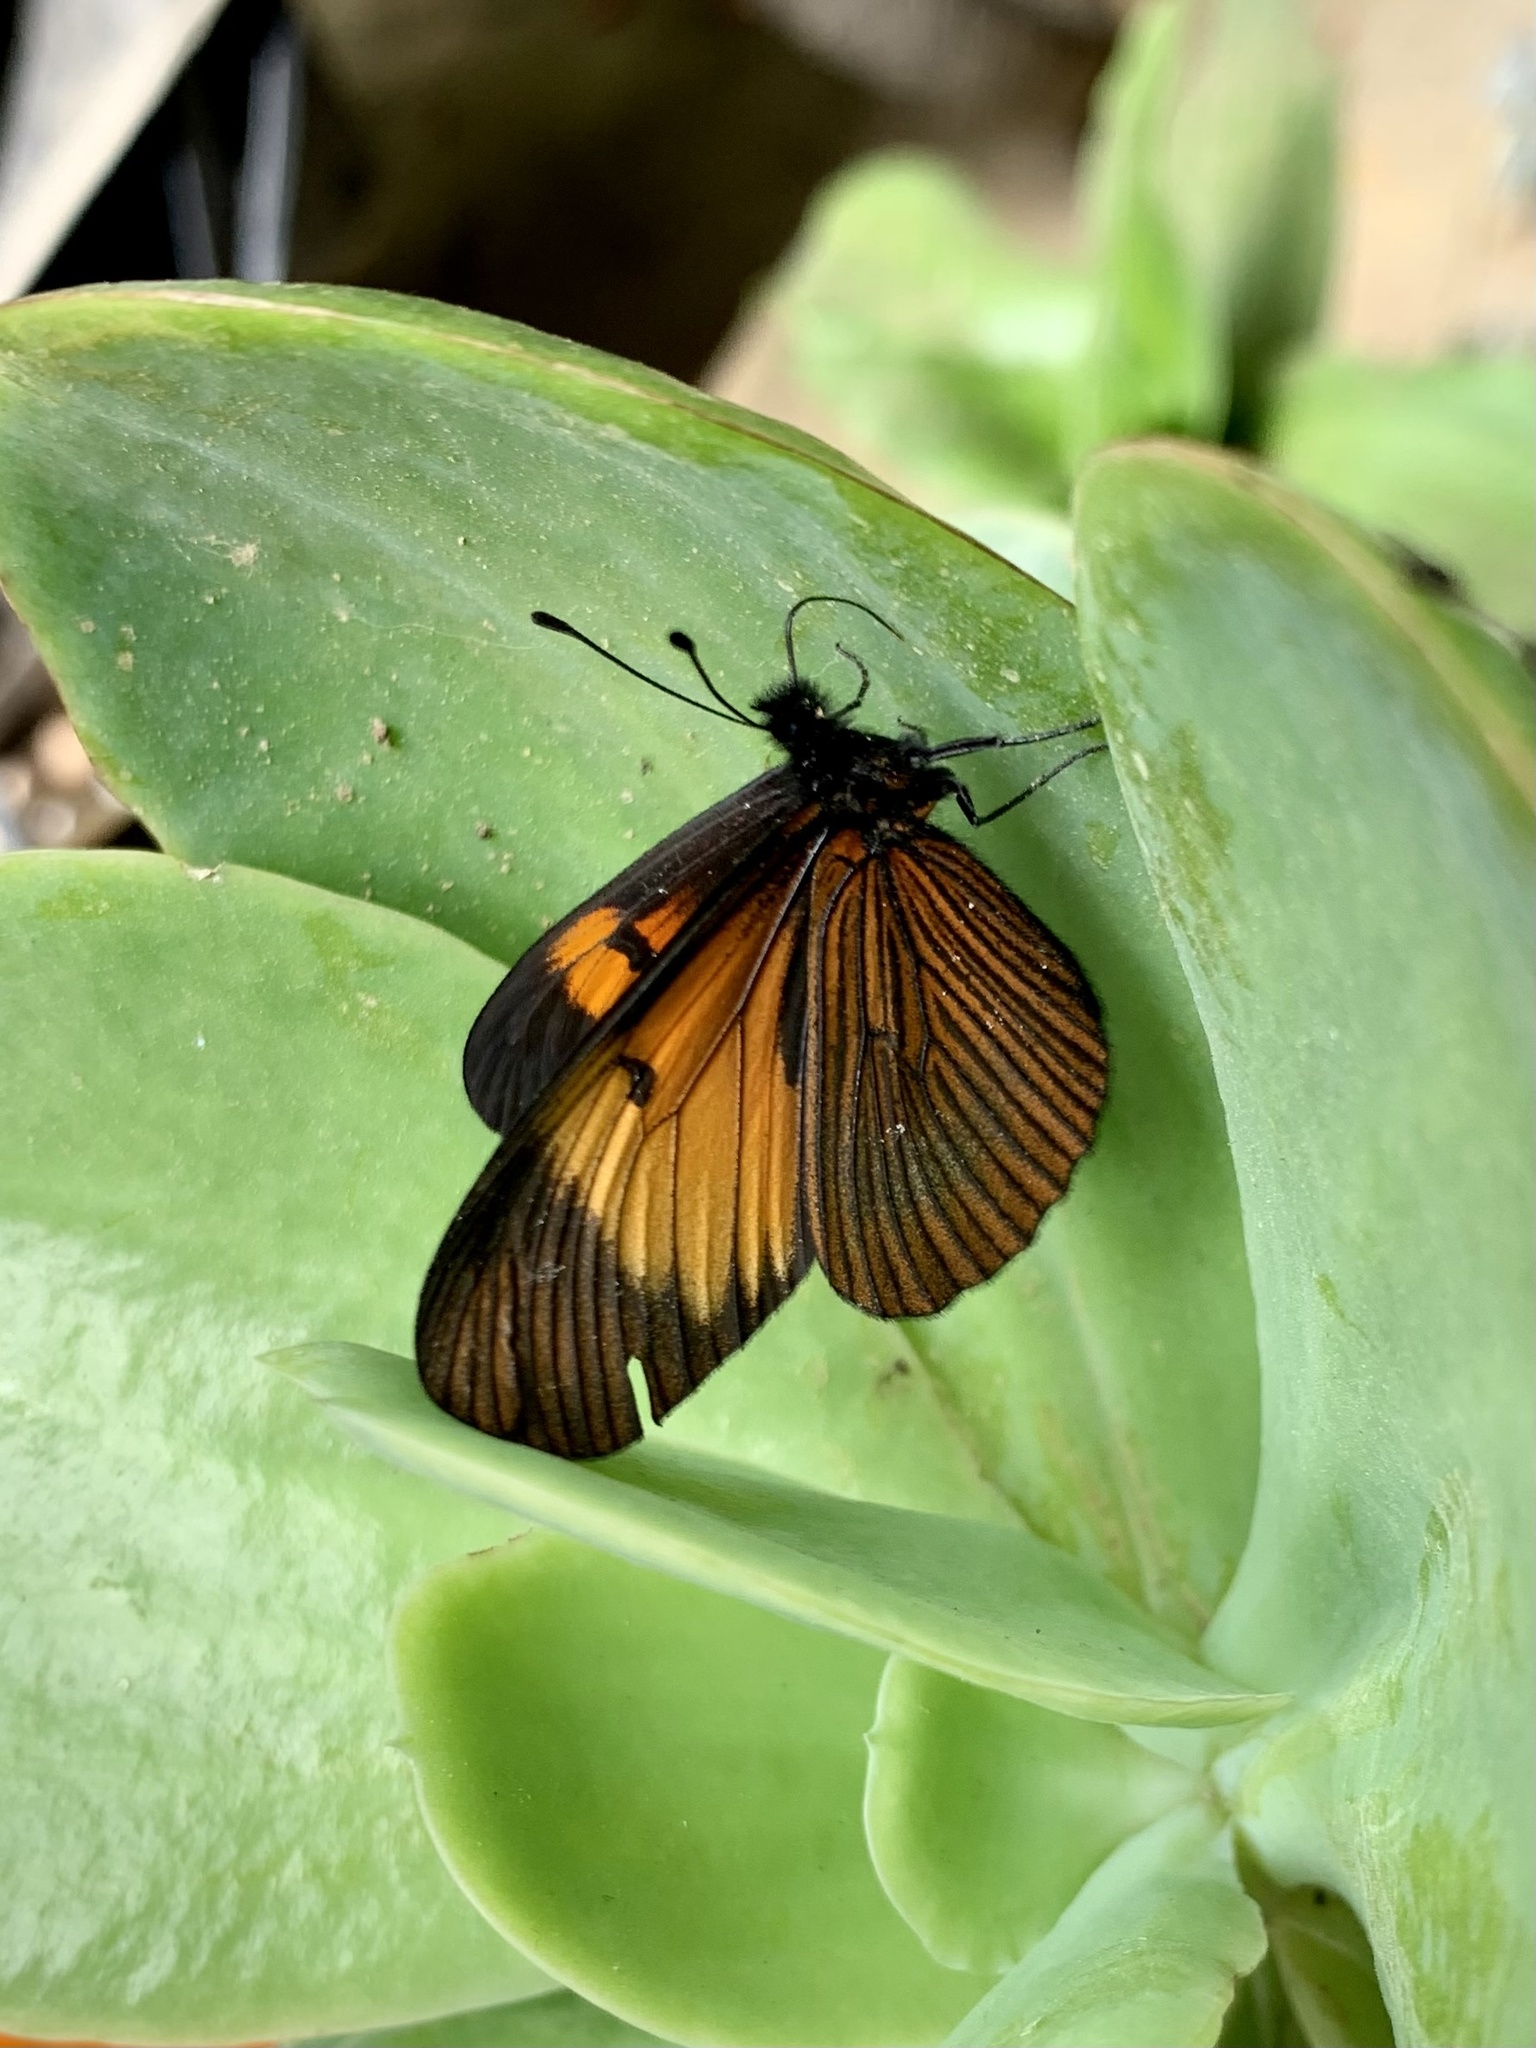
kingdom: Animalia
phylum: Arthropoda
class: Insecta
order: Lepidoptera
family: Nymphalidae
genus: Actinote
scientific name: Actinote stratonice
